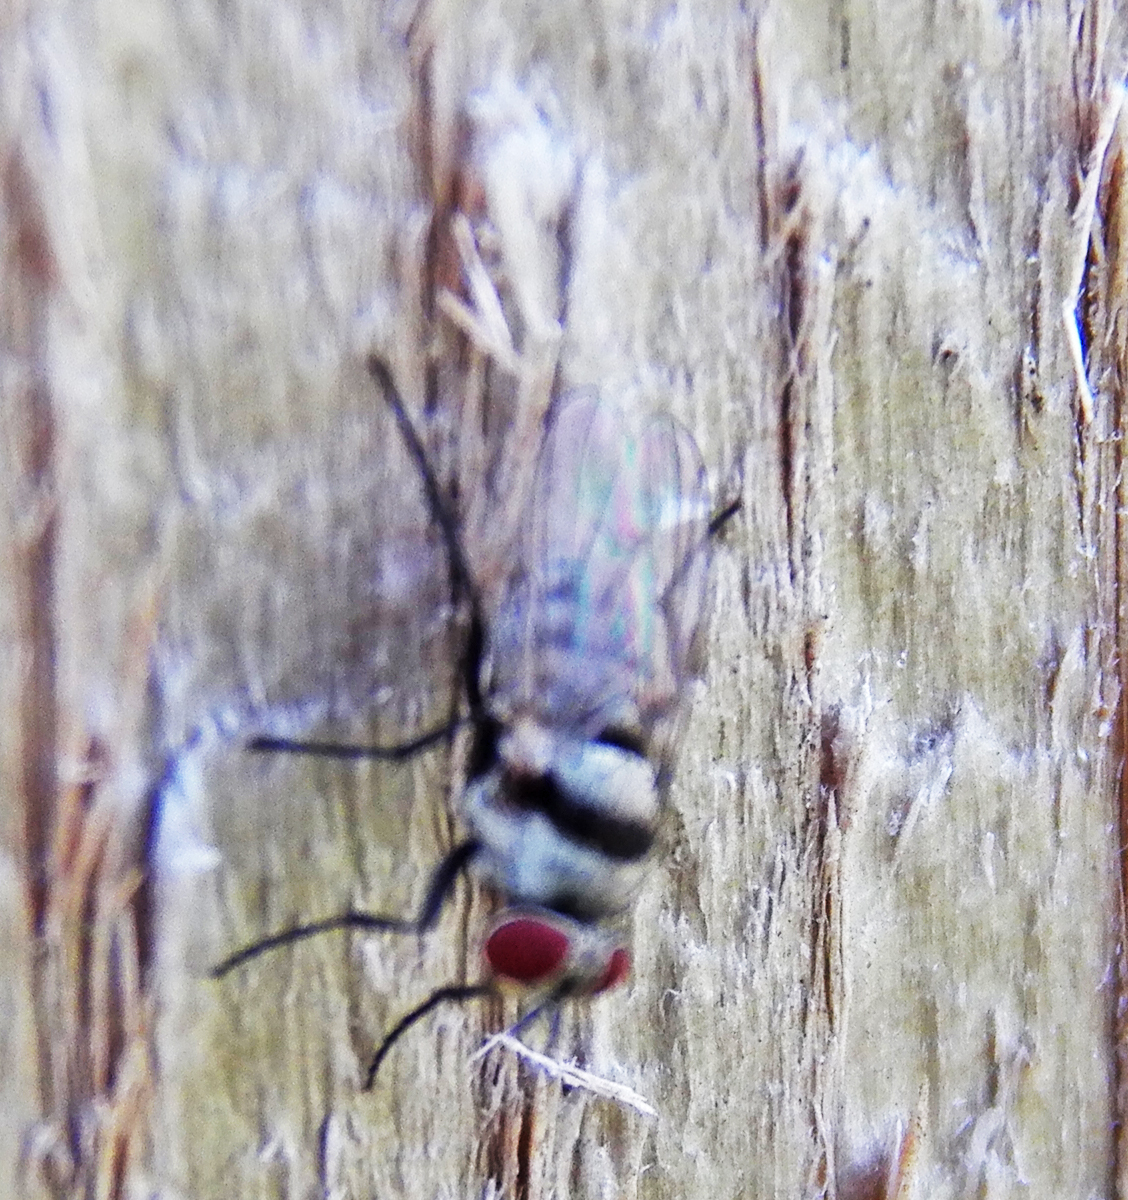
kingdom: Animalia
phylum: Arthropoda
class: Insecta
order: Diptera
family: Anthomyiidae
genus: Anthomyia
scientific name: Anthomyia illocata
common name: Fly
